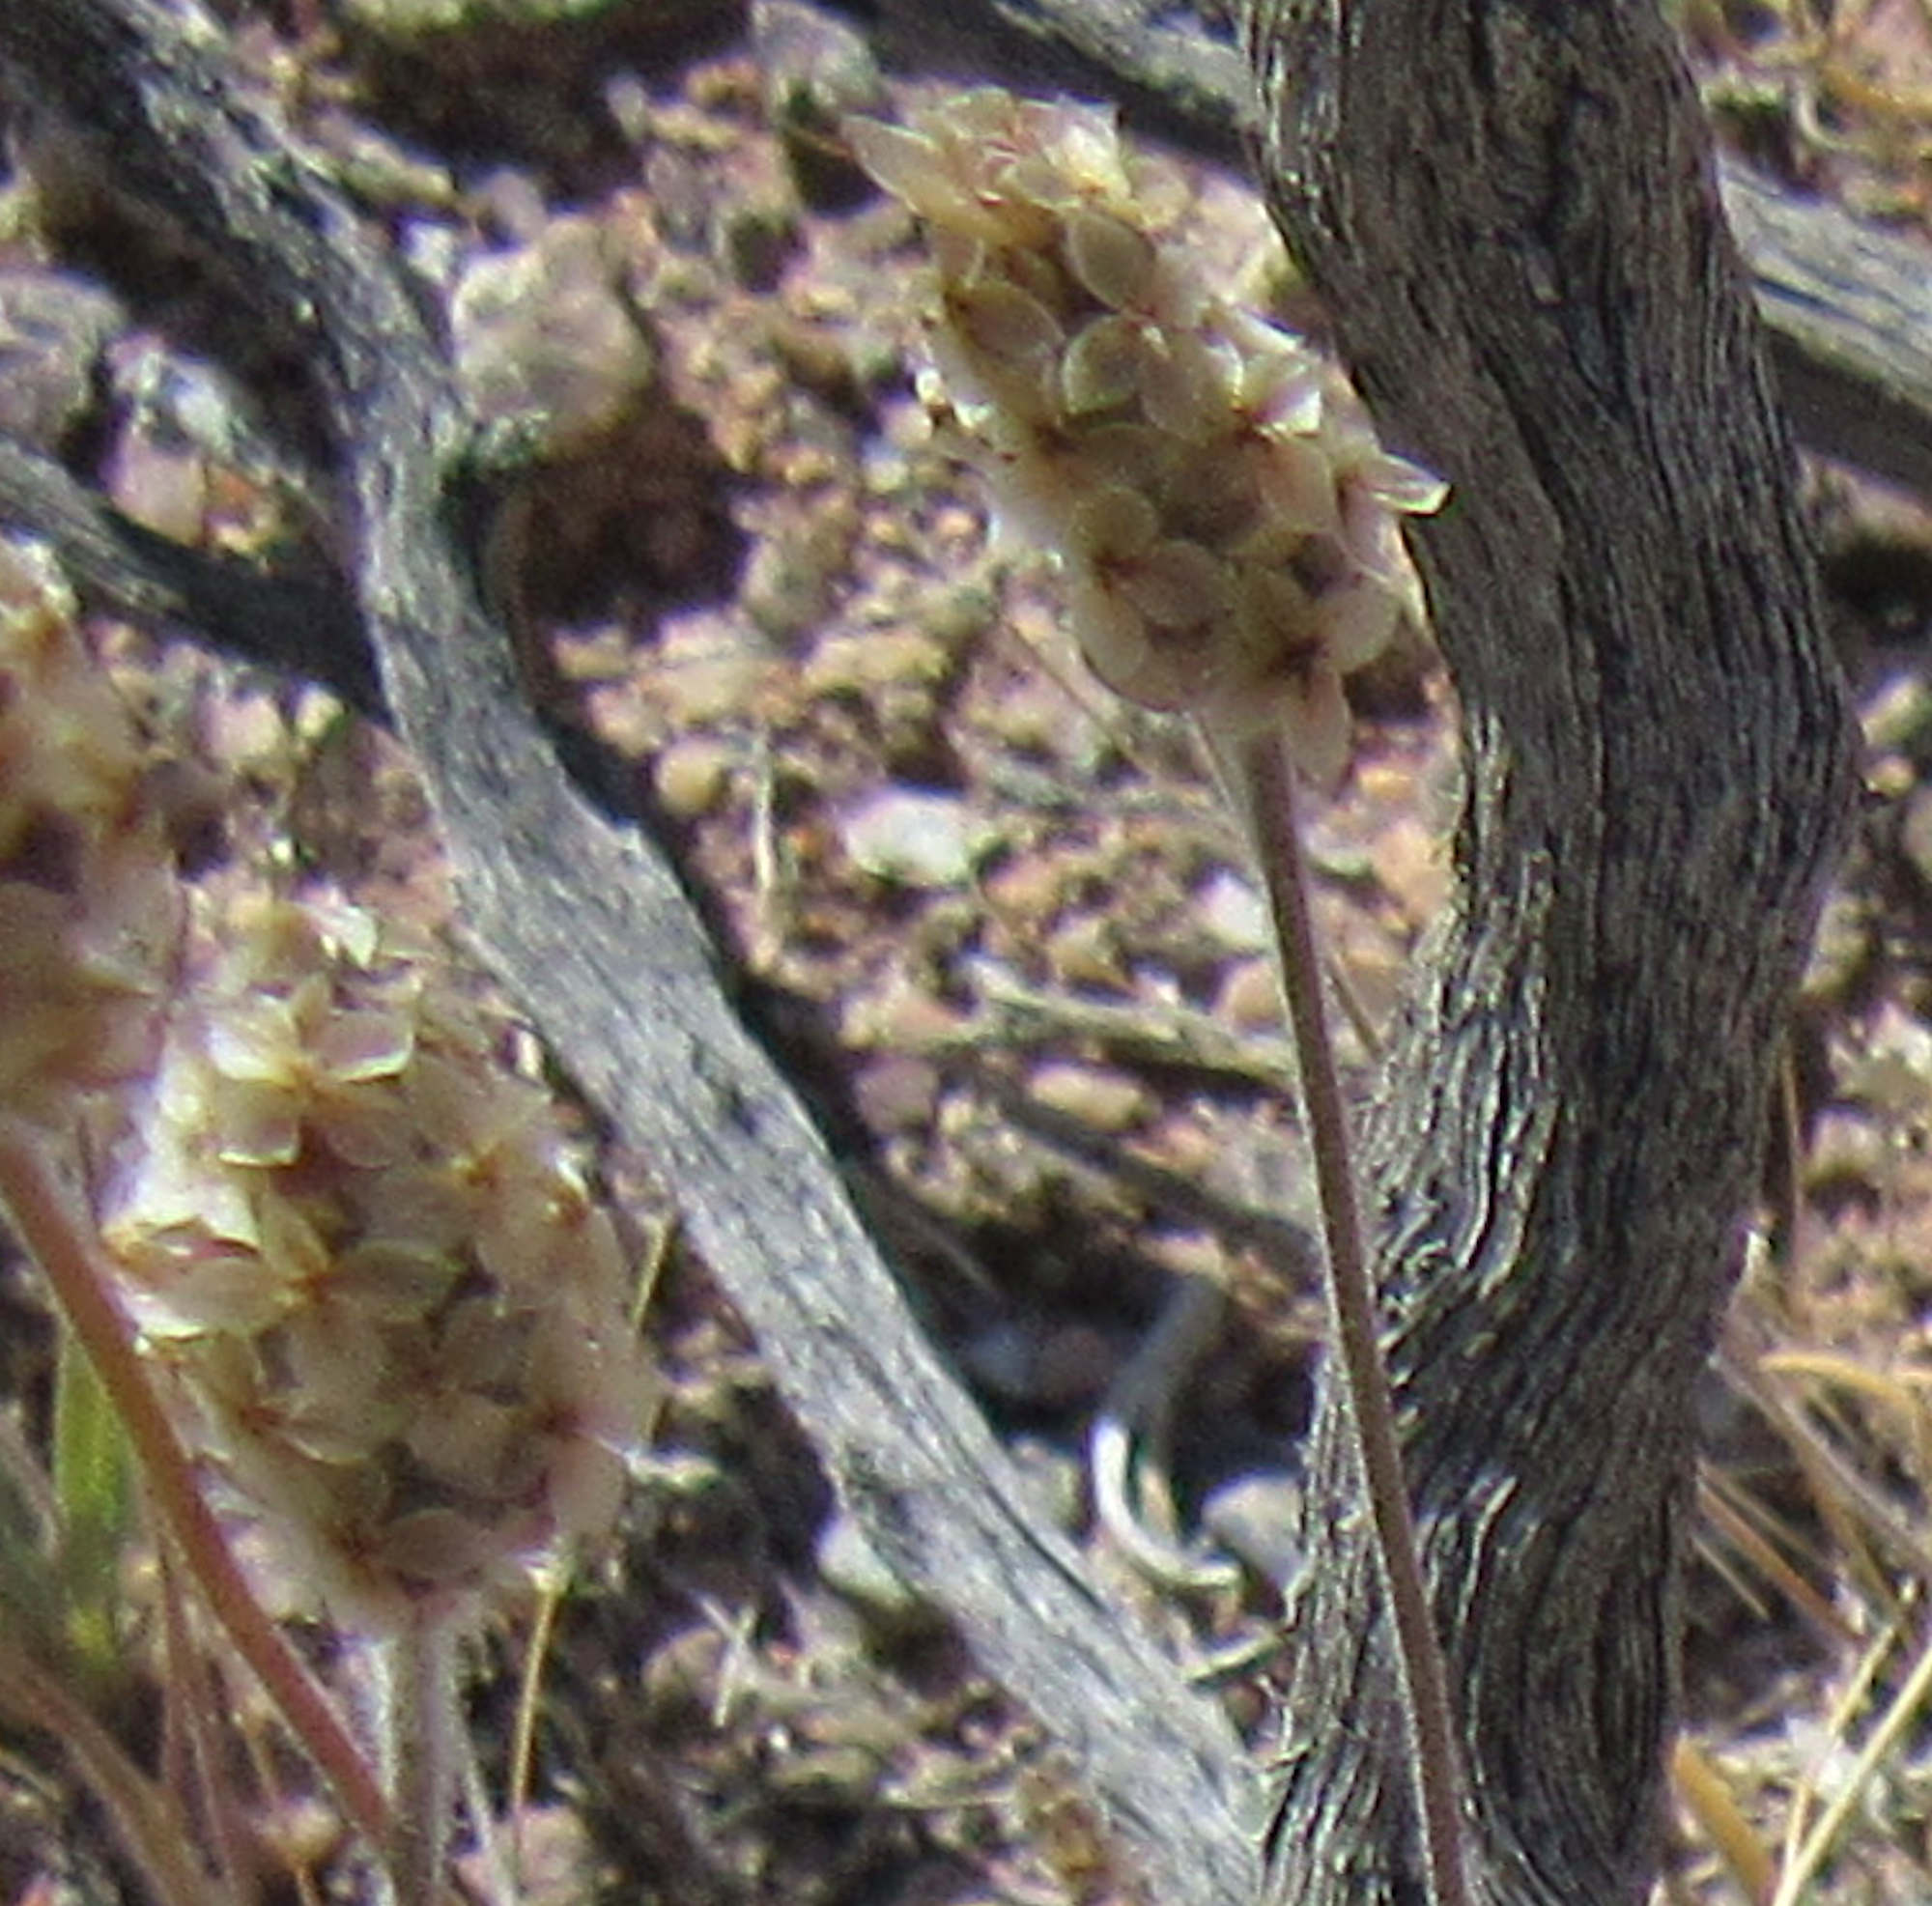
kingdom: Plantae
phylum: Tracheophyta
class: Magnoliopsida
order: Lamiales
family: Plantaginaceae
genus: Plantago
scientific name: Plantago ovata
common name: Blond plantain
